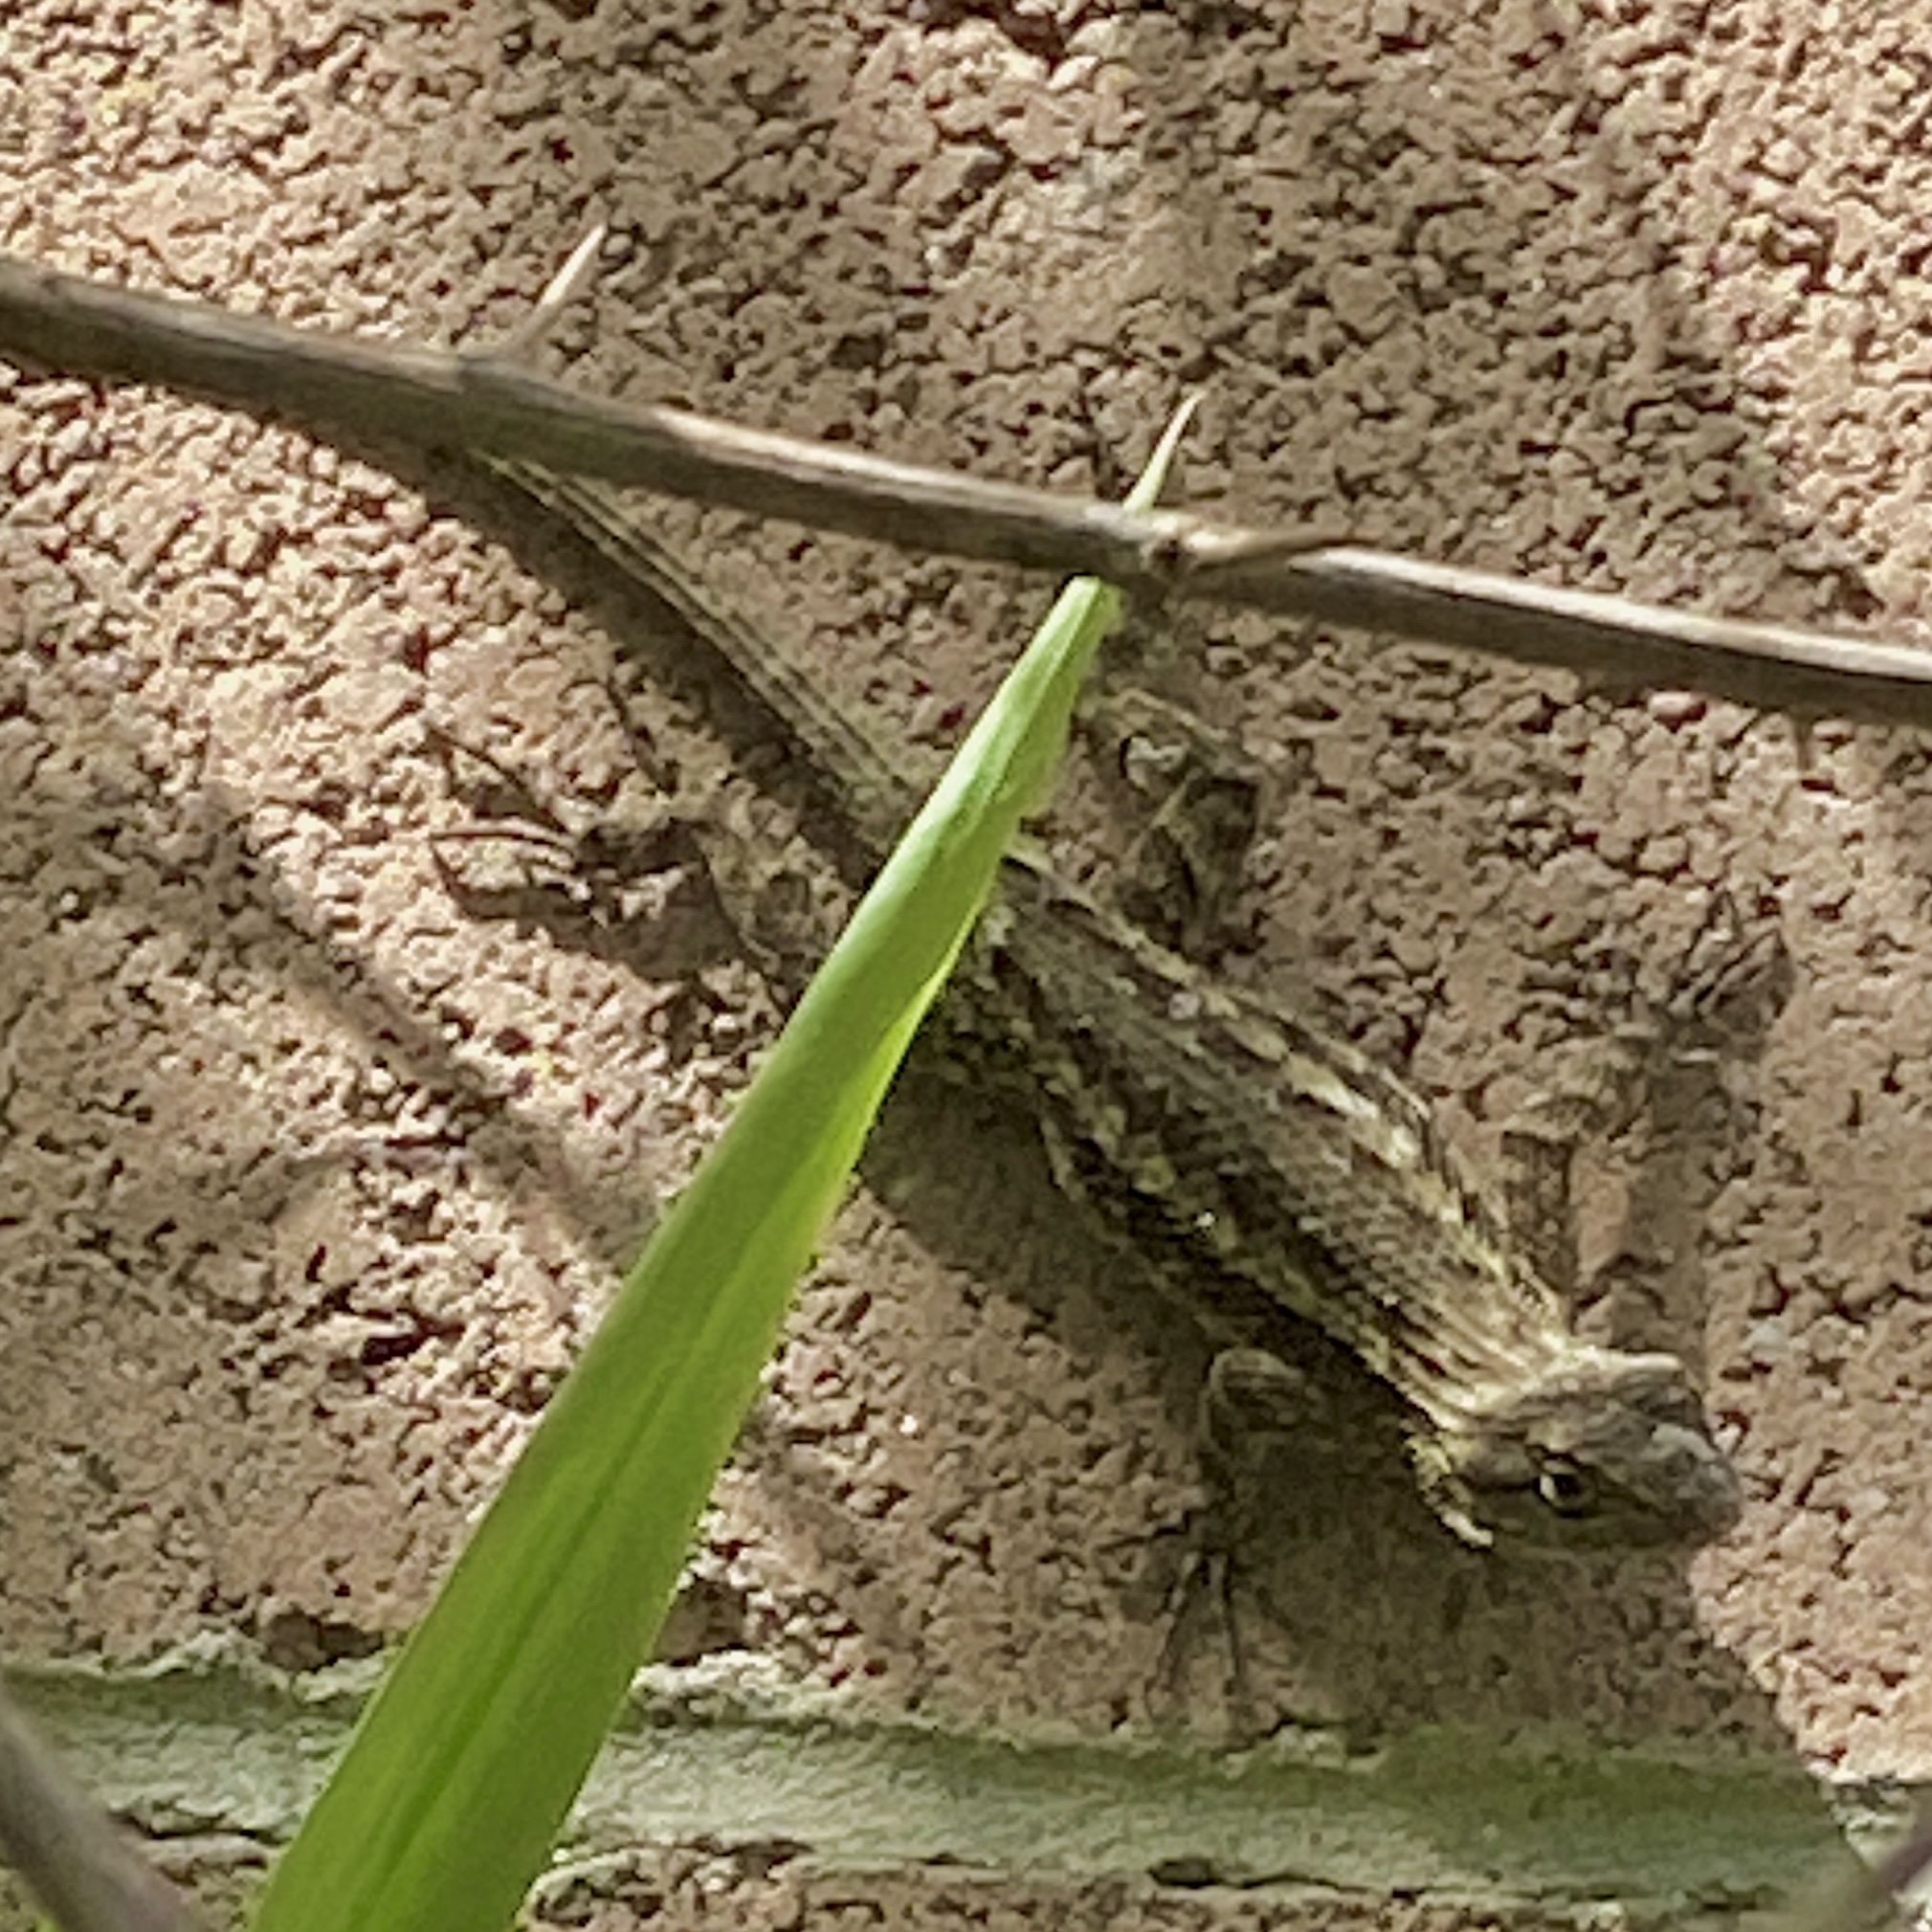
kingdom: Animalia
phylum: Chordata
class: Squamata
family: Phrynosomatidae
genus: Sceloporus
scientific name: Sceloporus occidentalis
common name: Western fence lizard
